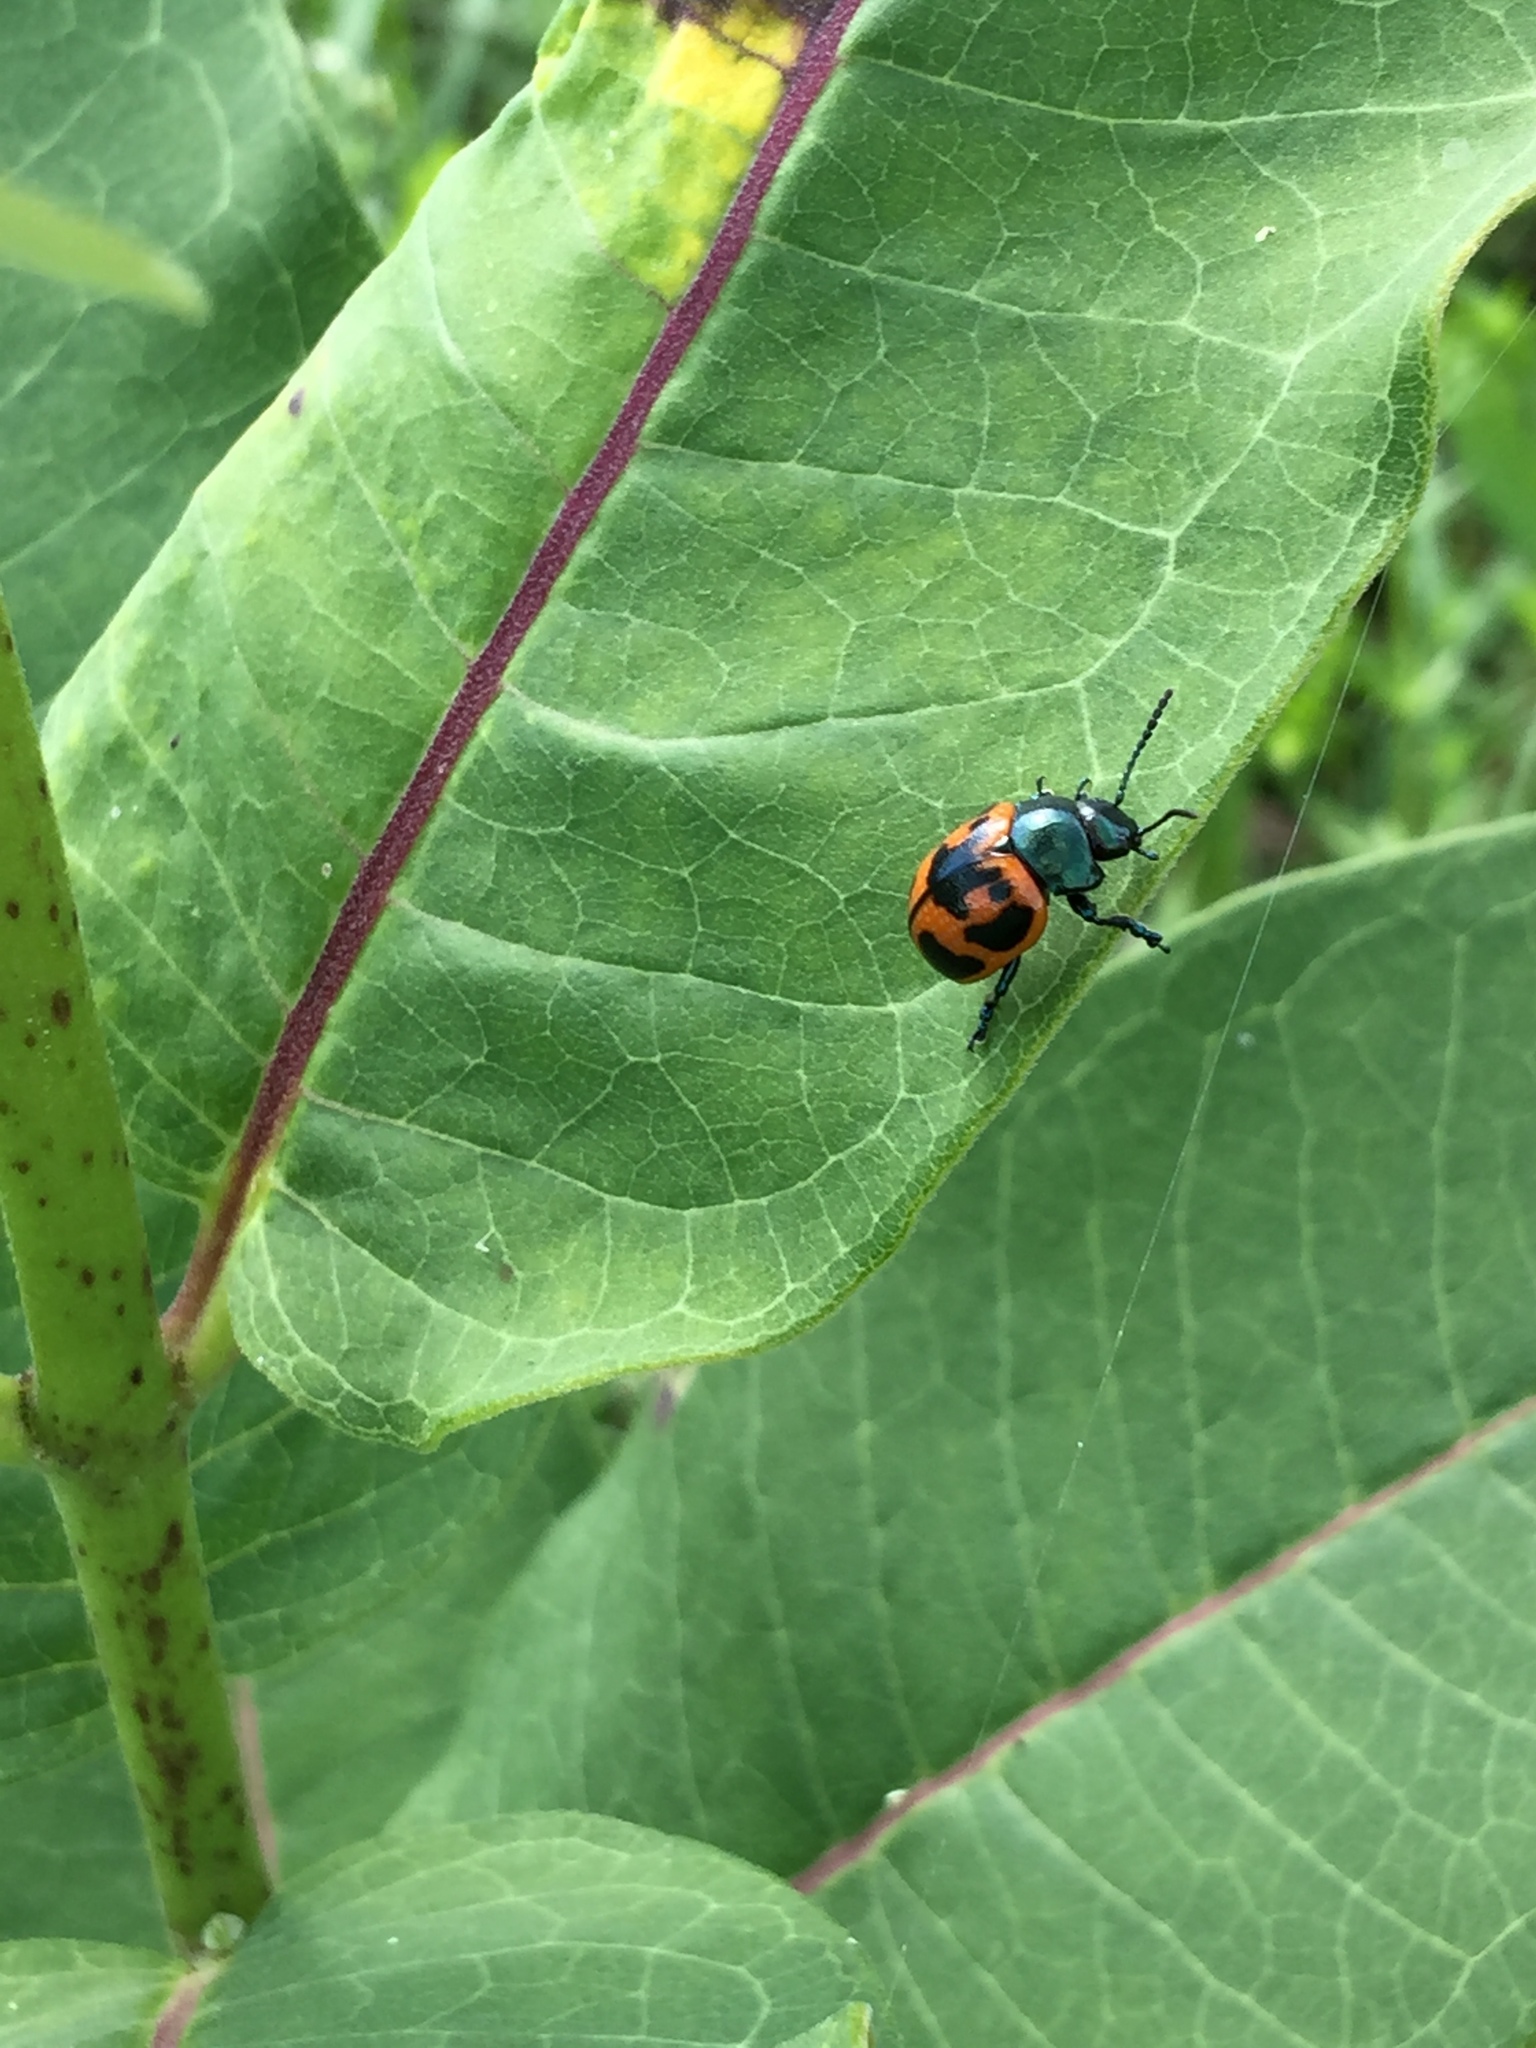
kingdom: Animalia
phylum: Arthropoda
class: Insecta
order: Coleoptera
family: Chrysomelidae
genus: Labidomera
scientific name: Labidomera clivicollis
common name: Swamp milkweed leaf beetle
